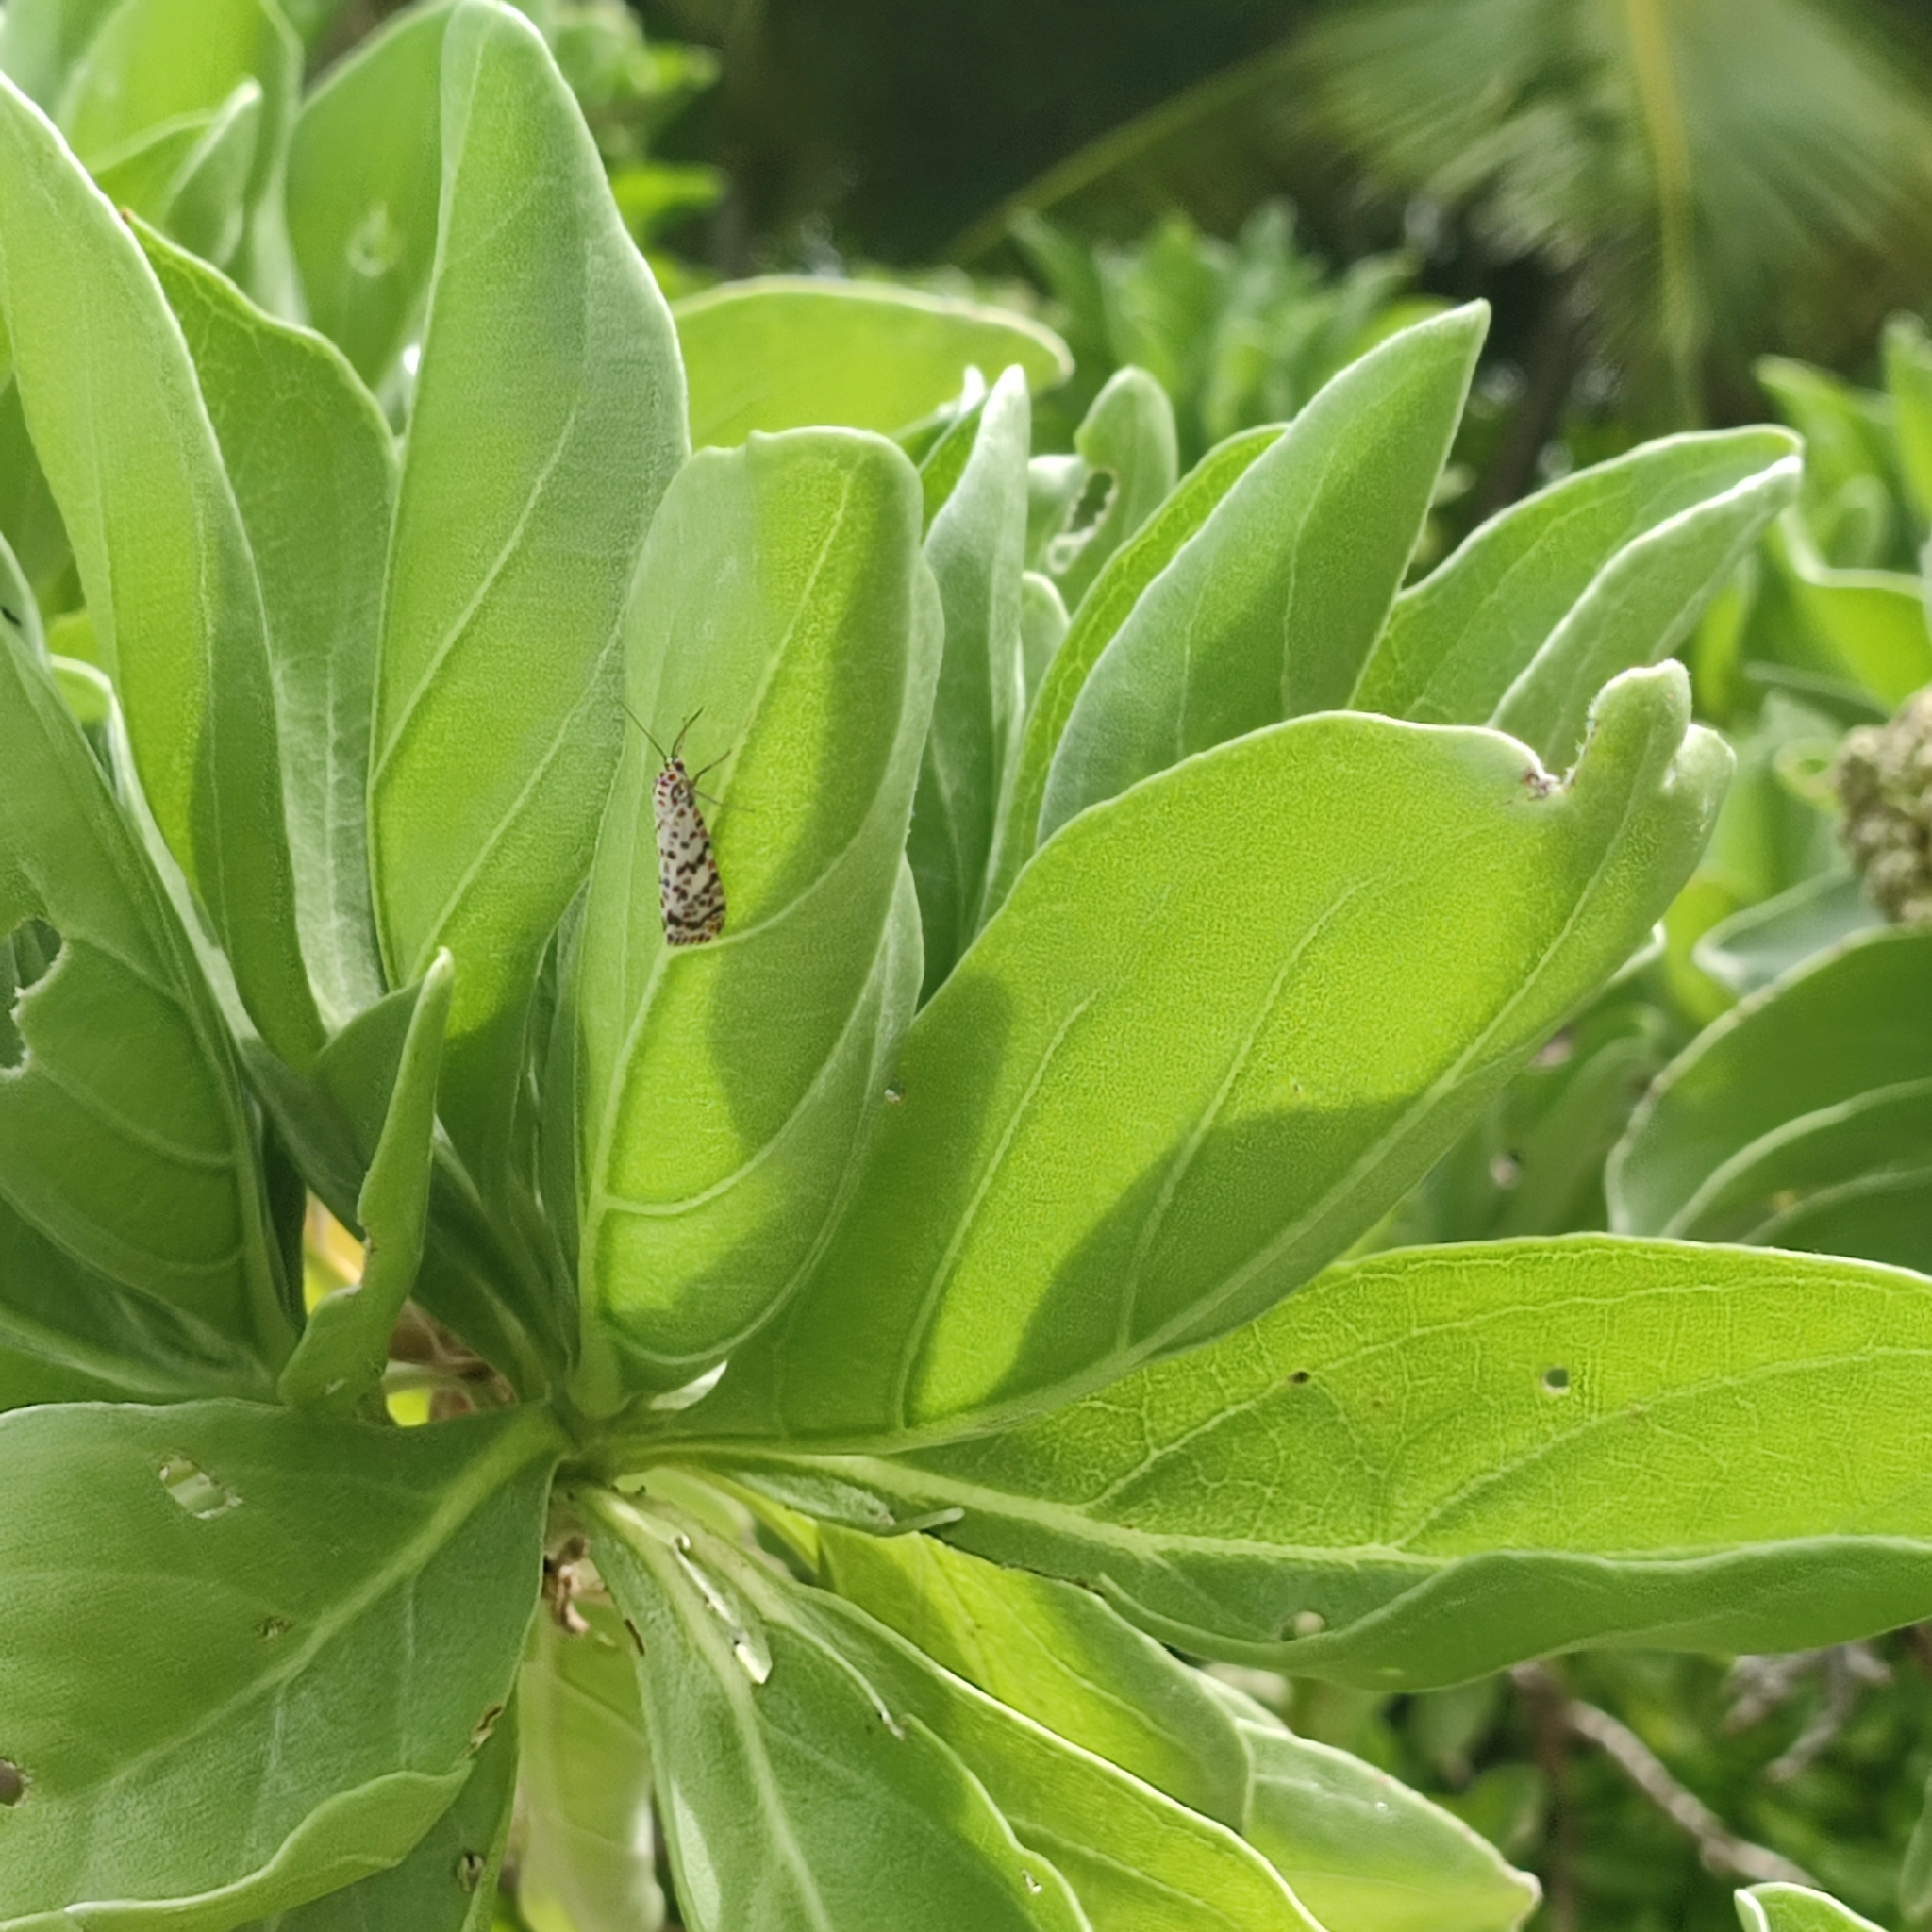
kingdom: Animalia
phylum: Arthropoda
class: Insecta
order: Lepidoptera
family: Erebidae
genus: Utetheisa
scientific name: Utetheisa pulchelloides
